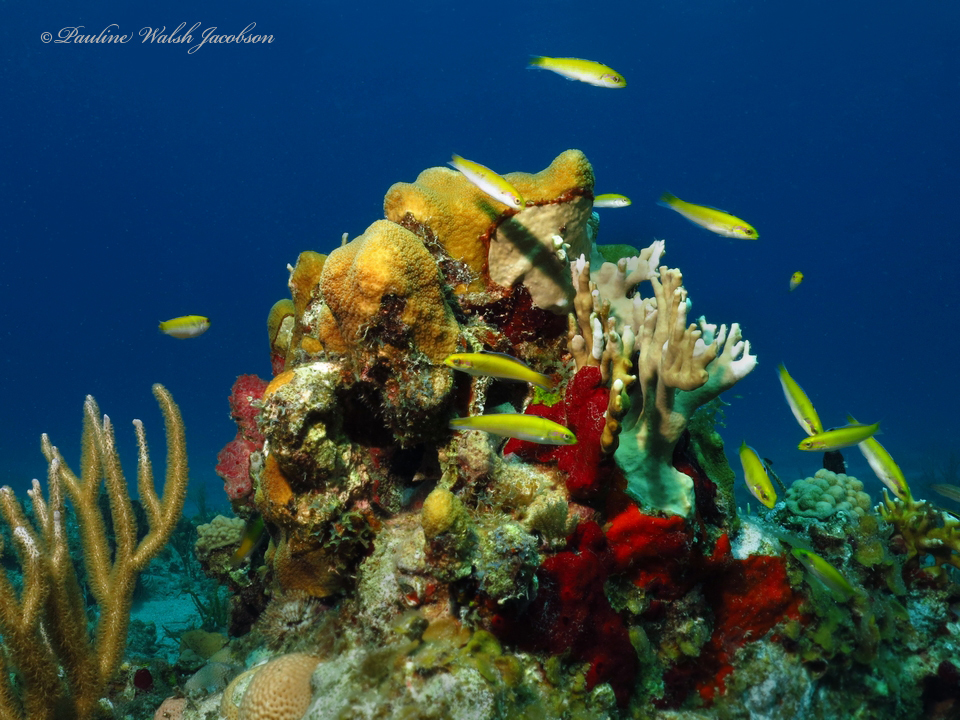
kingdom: Animalia
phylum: Chordata
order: Perciformes
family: Labridae
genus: Thalassoma
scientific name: Thalassoma bifasciatum
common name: Bluehead wrasse
